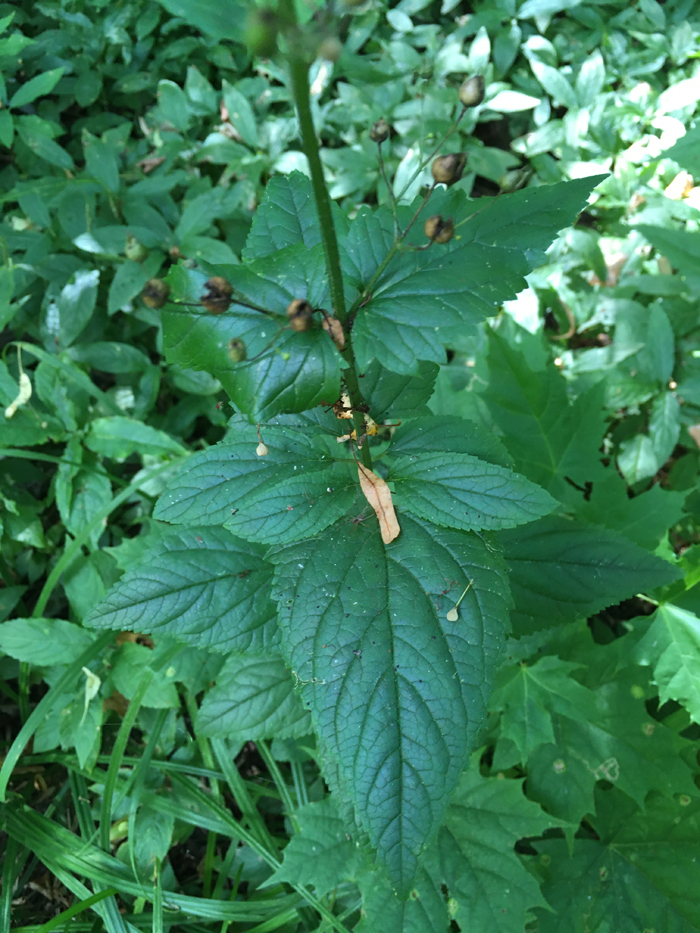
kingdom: Plantae
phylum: Tracheophyta
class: Magnoliopsida
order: Lamiales
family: Scrophulariaceae
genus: Scrophularia
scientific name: Scrophularia nodosa
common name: Common figwort
